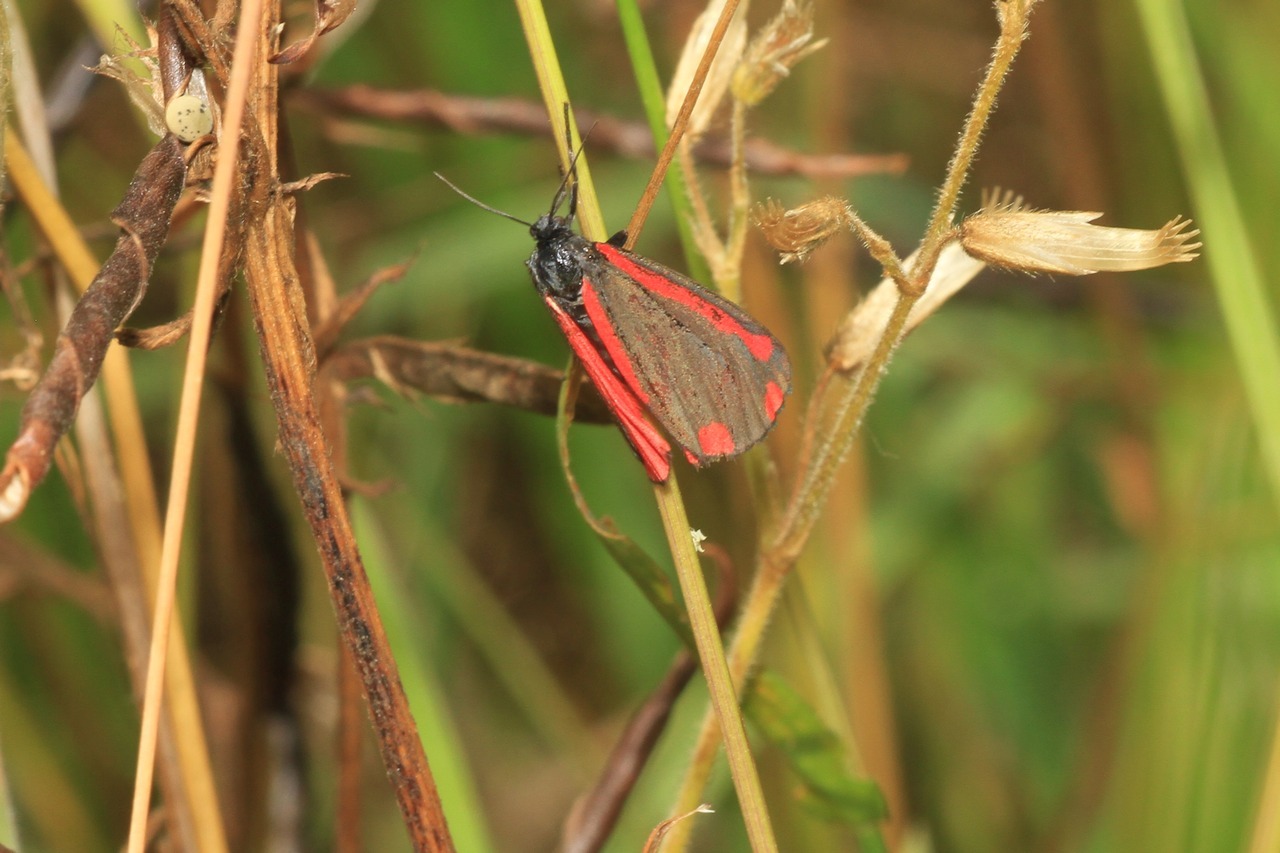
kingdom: Animalia
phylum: Arthropoda
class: Insecta
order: Lepidoptera
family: Erebidae
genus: Tyria
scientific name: Tyria jacobaeae
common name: Cinnabar
